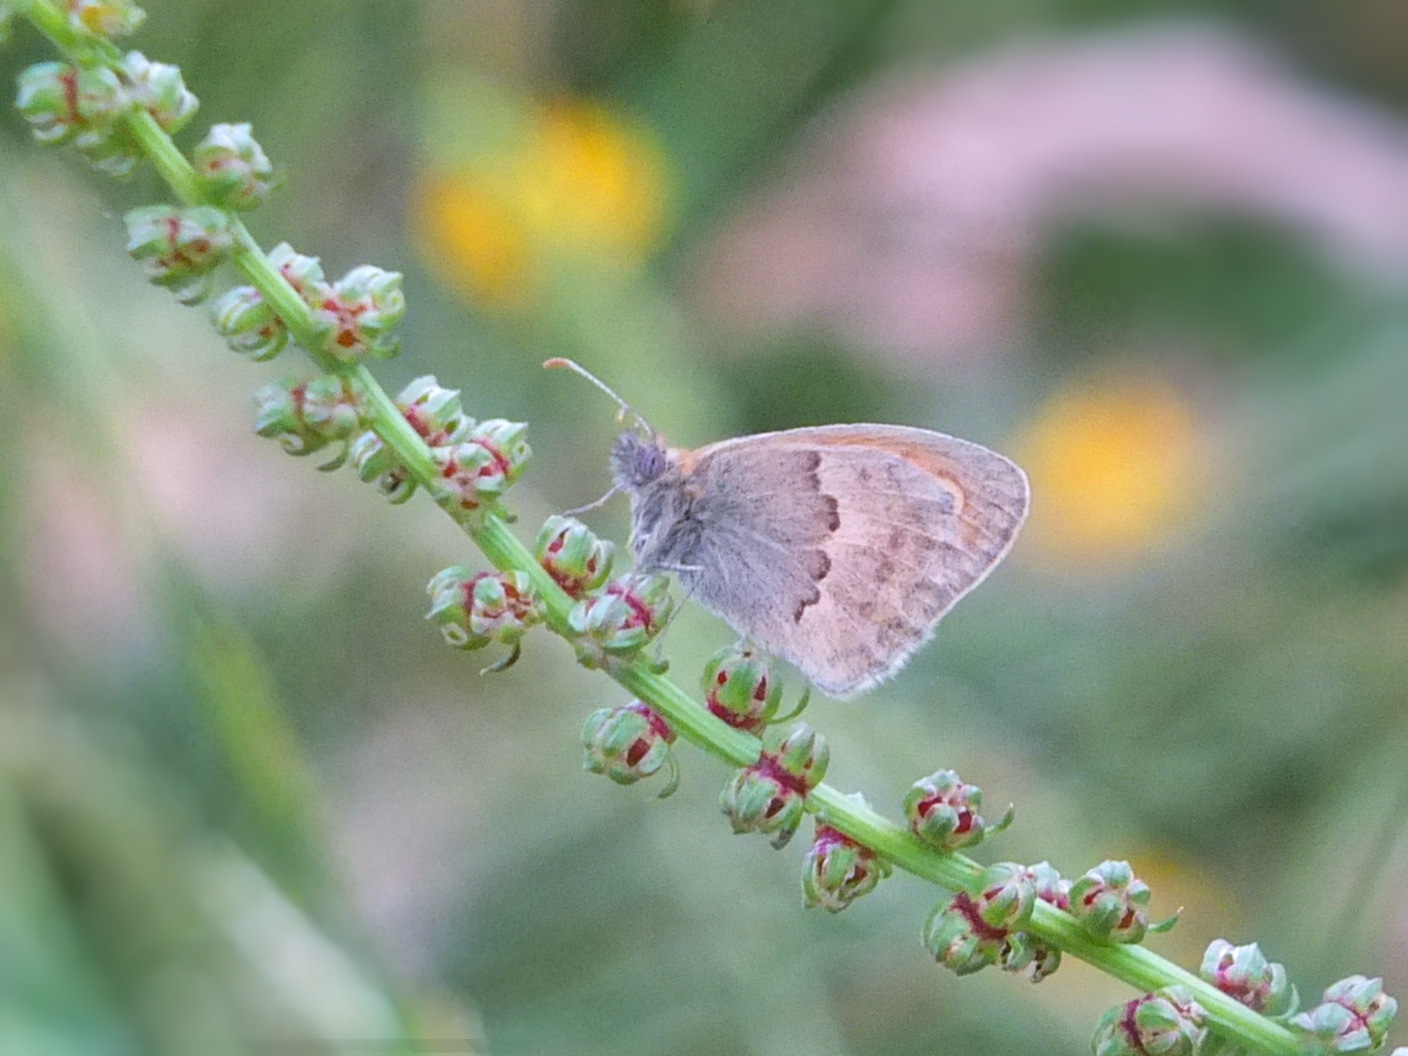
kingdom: Animalia
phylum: Arthropoda
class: Insecta
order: Lepidoptera
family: Nymphalidae
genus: Coenonympha
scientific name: Coenonympha pamphilus
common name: Small heath
